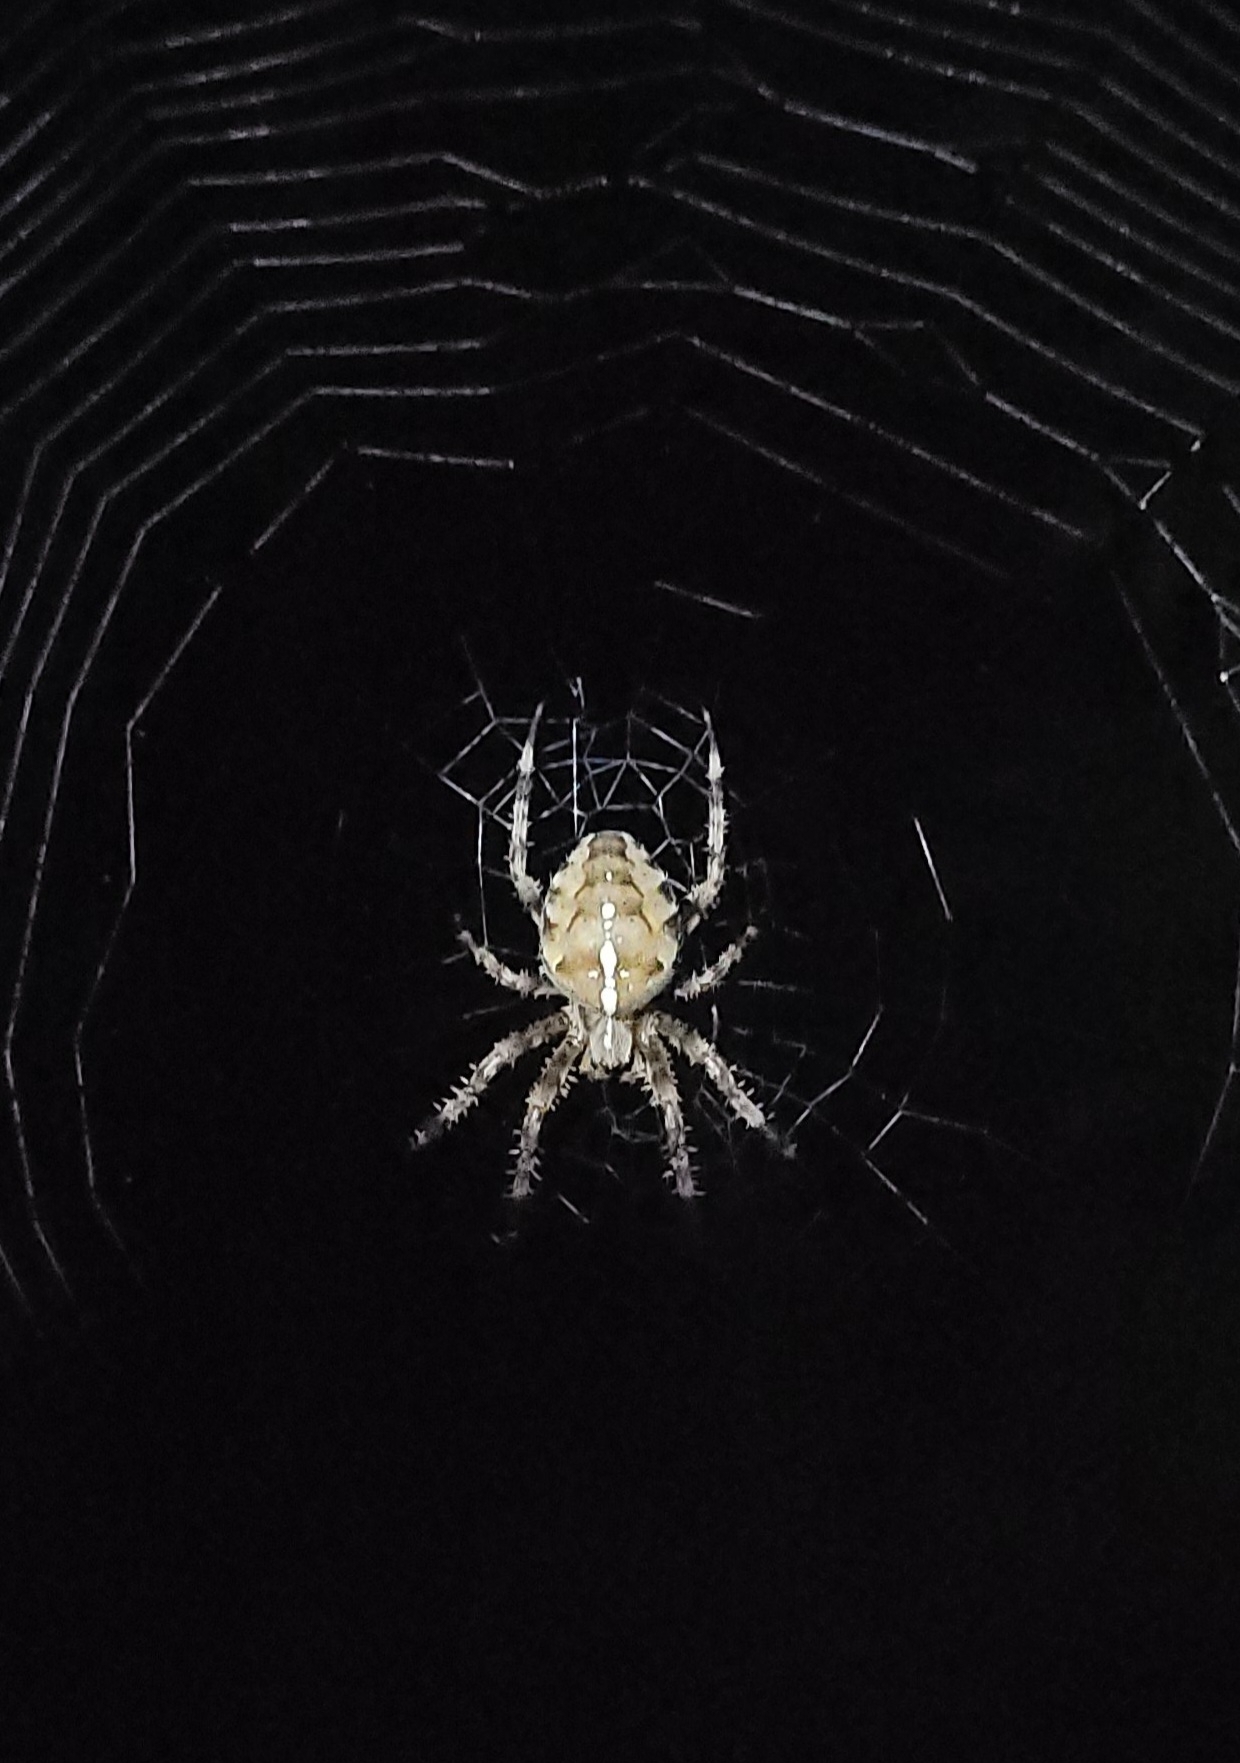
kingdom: Animalia
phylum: Arthropoda
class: Arachnida
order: Araneae
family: Araneidae
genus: Araneus
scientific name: Araneus diadematus
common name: Cross orbweaver
